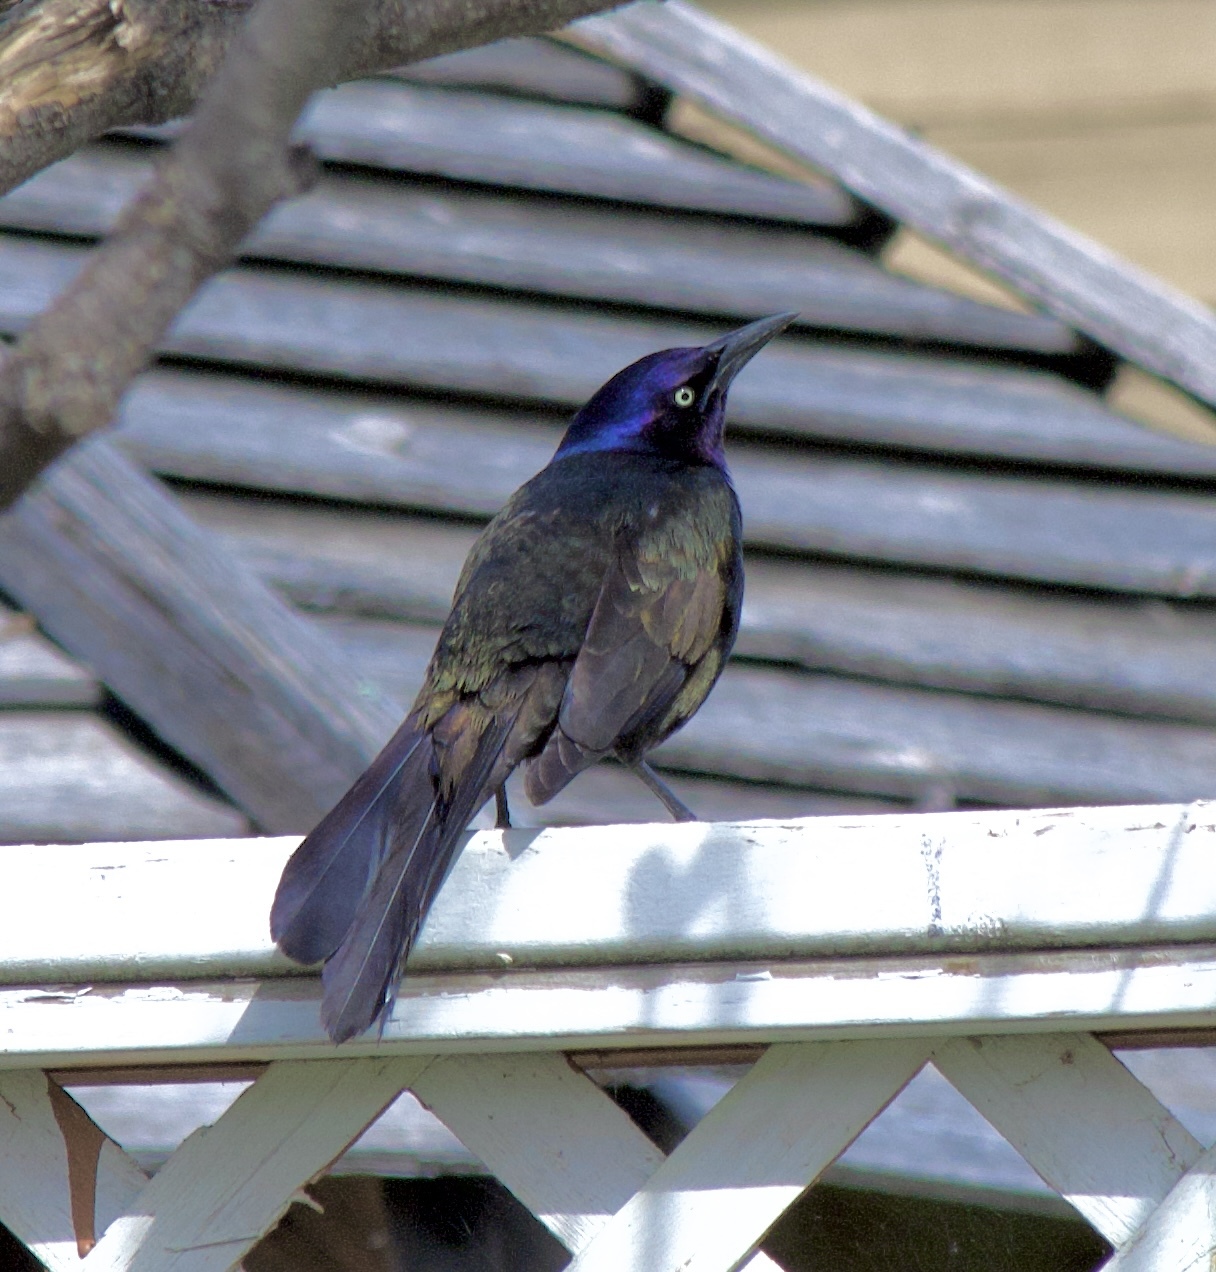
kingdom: Animalia
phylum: Chordata
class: Aves
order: Passeriformes
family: Icteridae
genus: Quiscalus
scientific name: Quiscalus quiscula
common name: Common grackle
